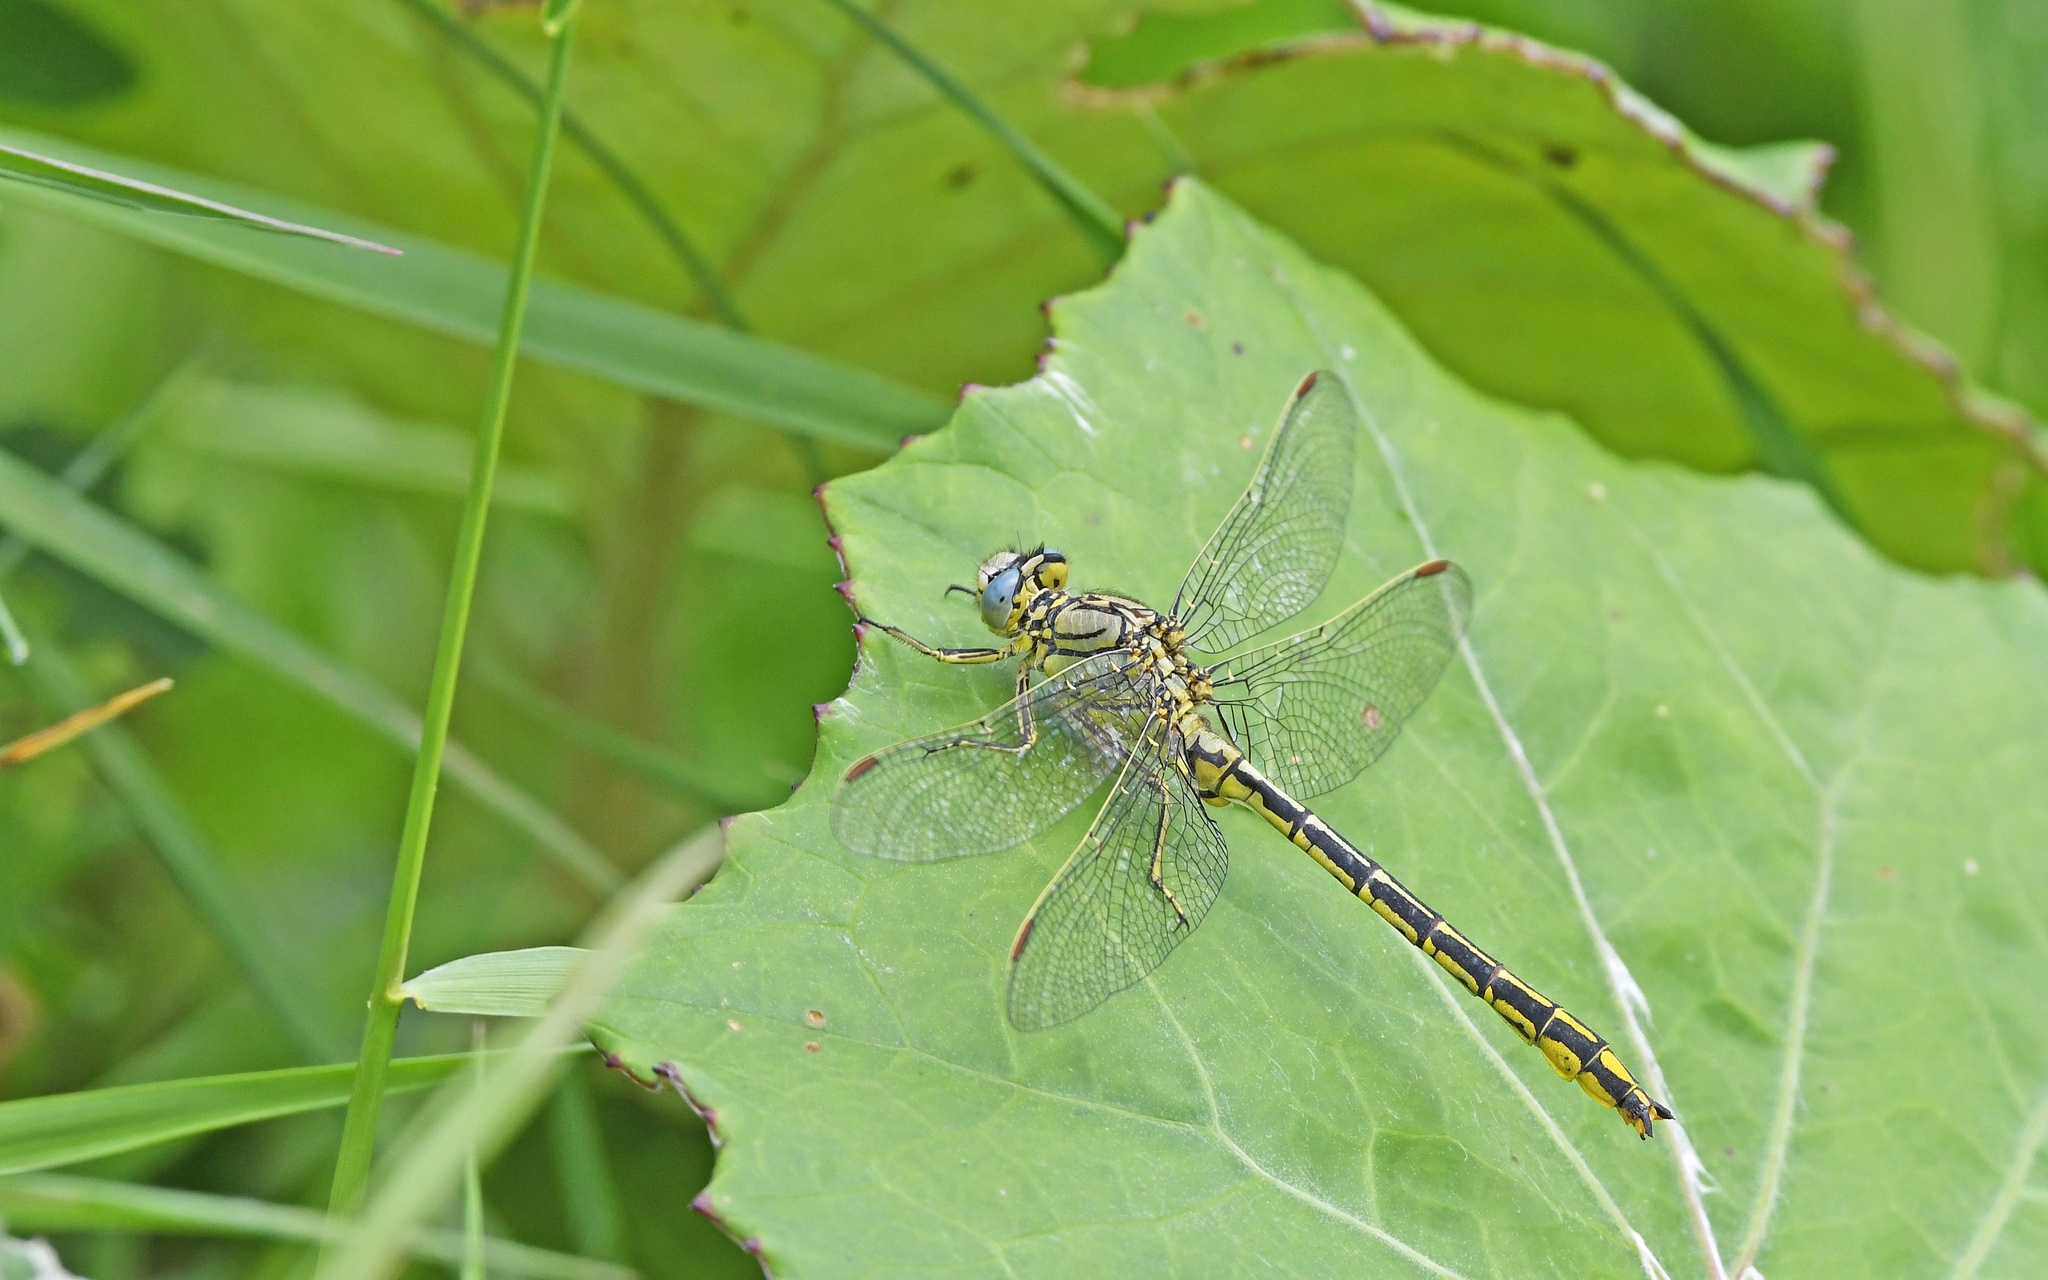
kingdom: Animalia
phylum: Arthropoda
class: Insecta
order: Odonata
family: Gomphidae
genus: Gomphus
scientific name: Gomphus pulchellus
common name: Western clubtail
